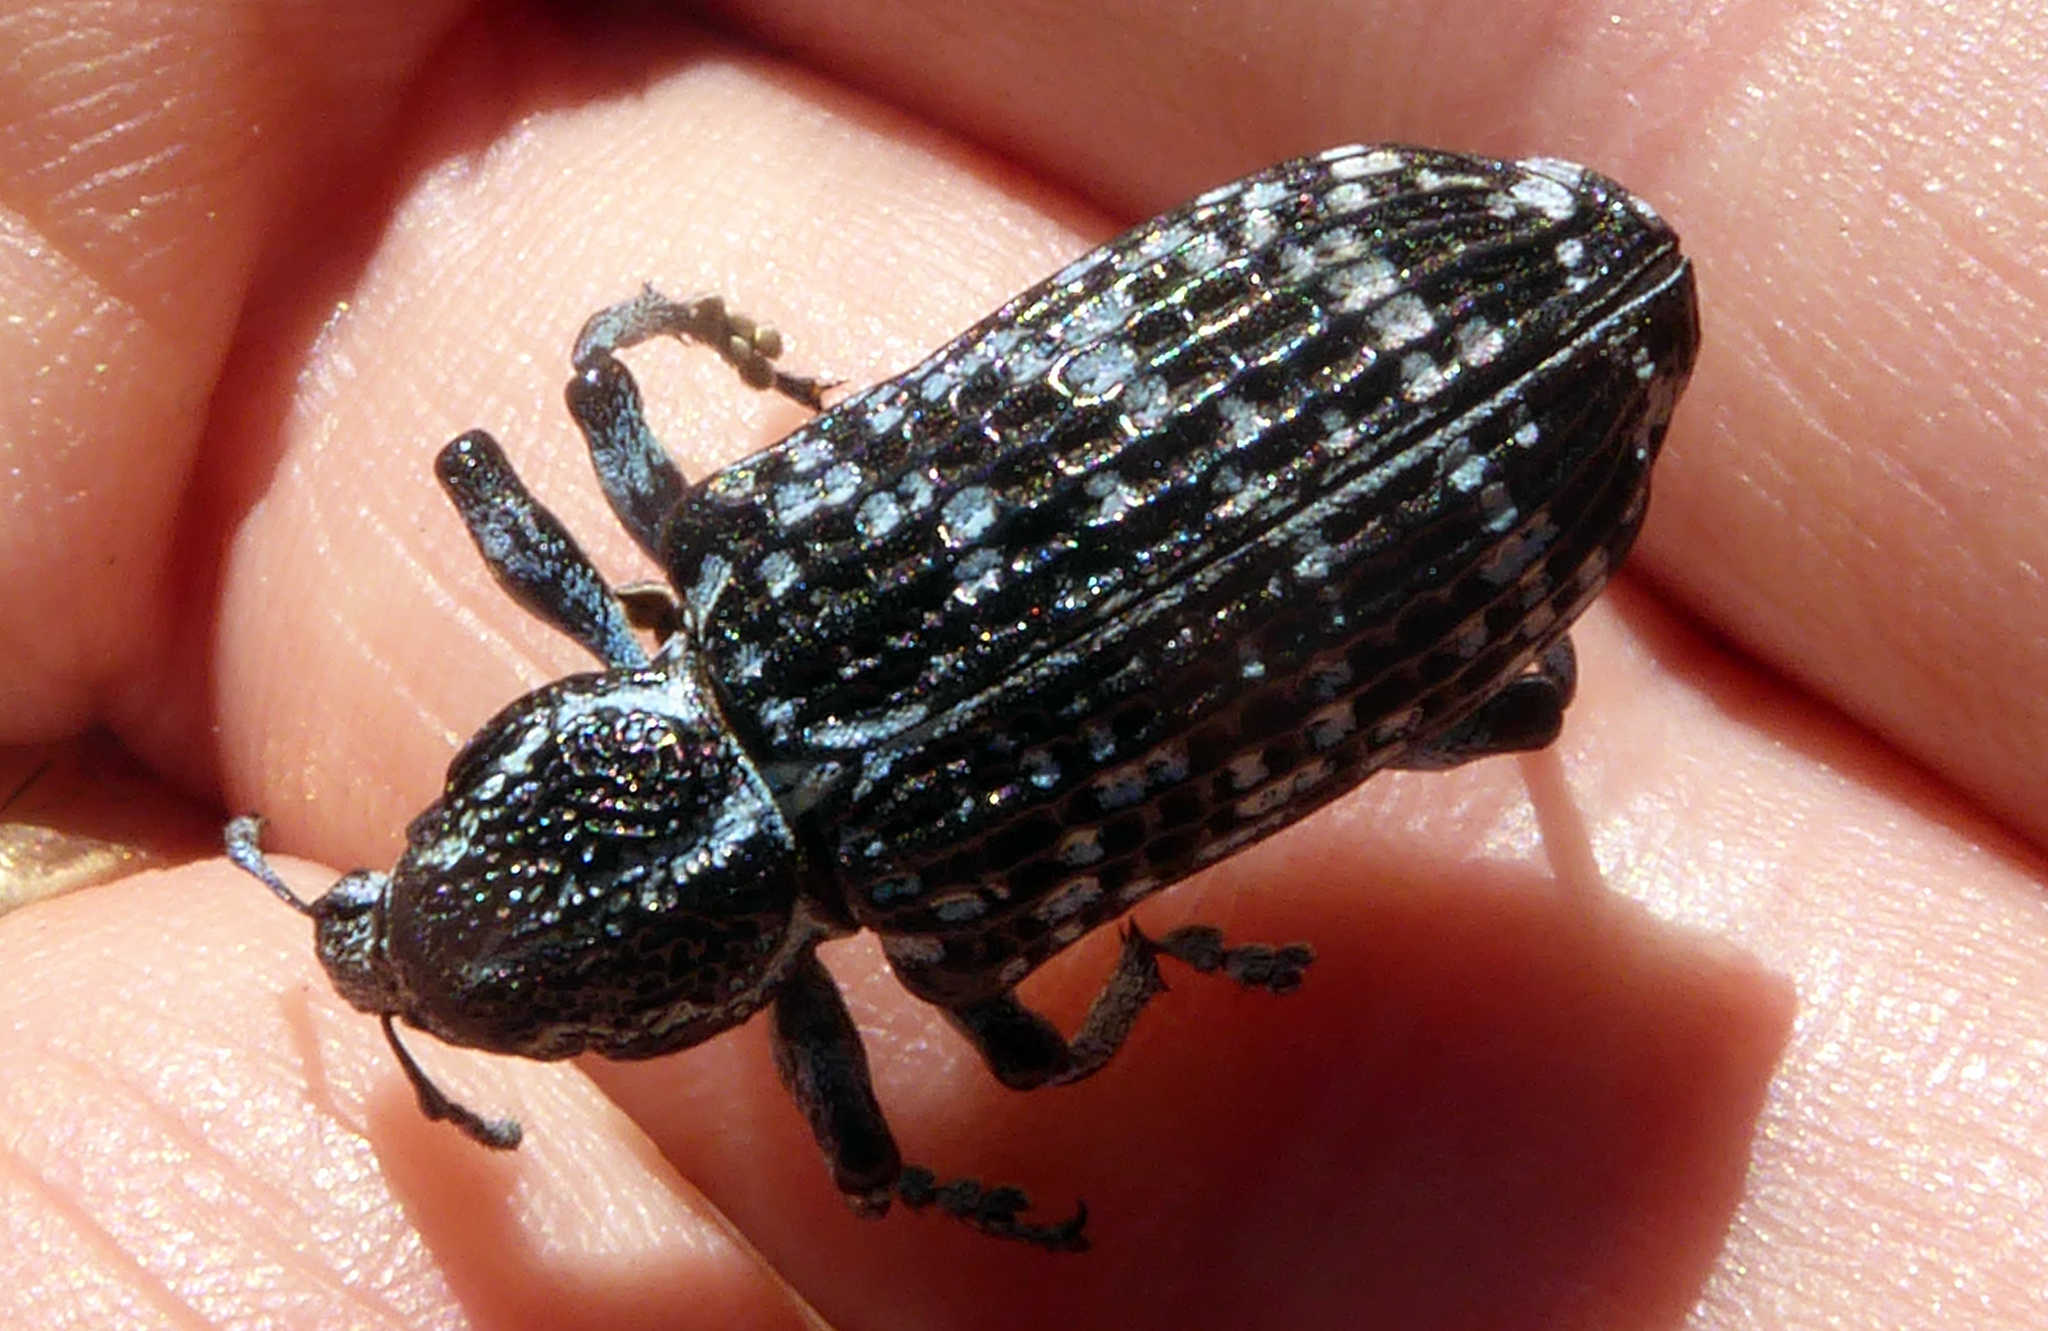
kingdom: Animalia
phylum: Arthropoda
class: Insecta
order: Coleoptera
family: Curculionidae
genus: Chrysolopus
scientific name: Chrysolopus spectabilis
